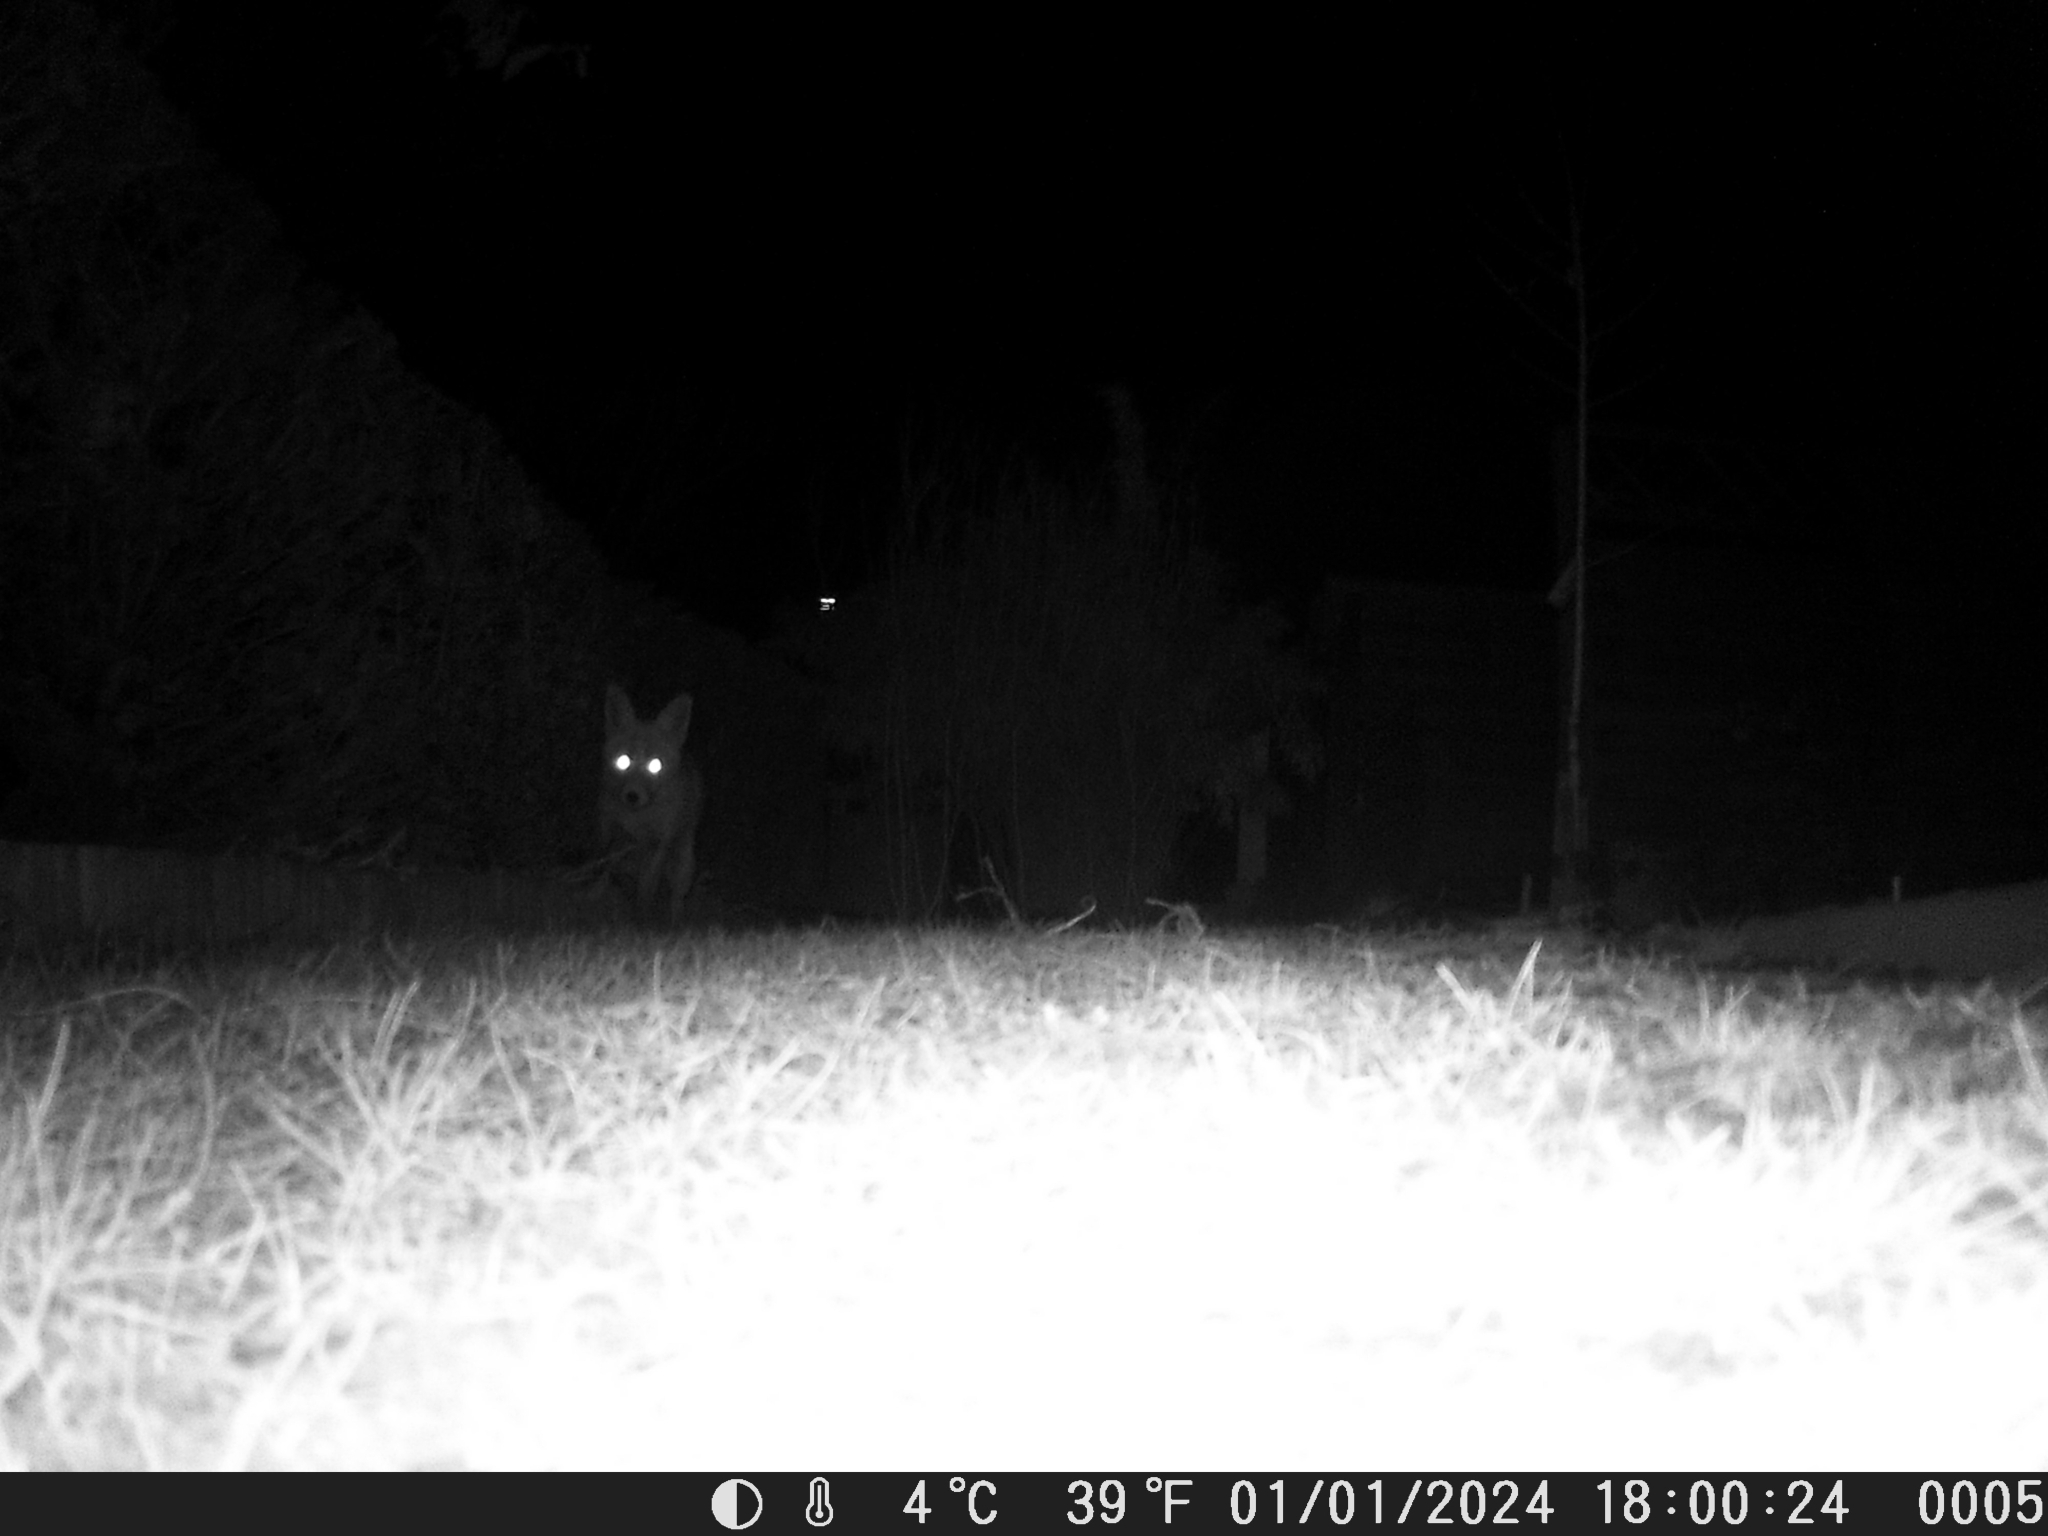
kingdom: Animalia
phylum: Chordata
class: Mammalia
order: Carnivora
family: Canidae
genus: Vulpes
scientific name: Vulpes vulpes
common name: Red fox
